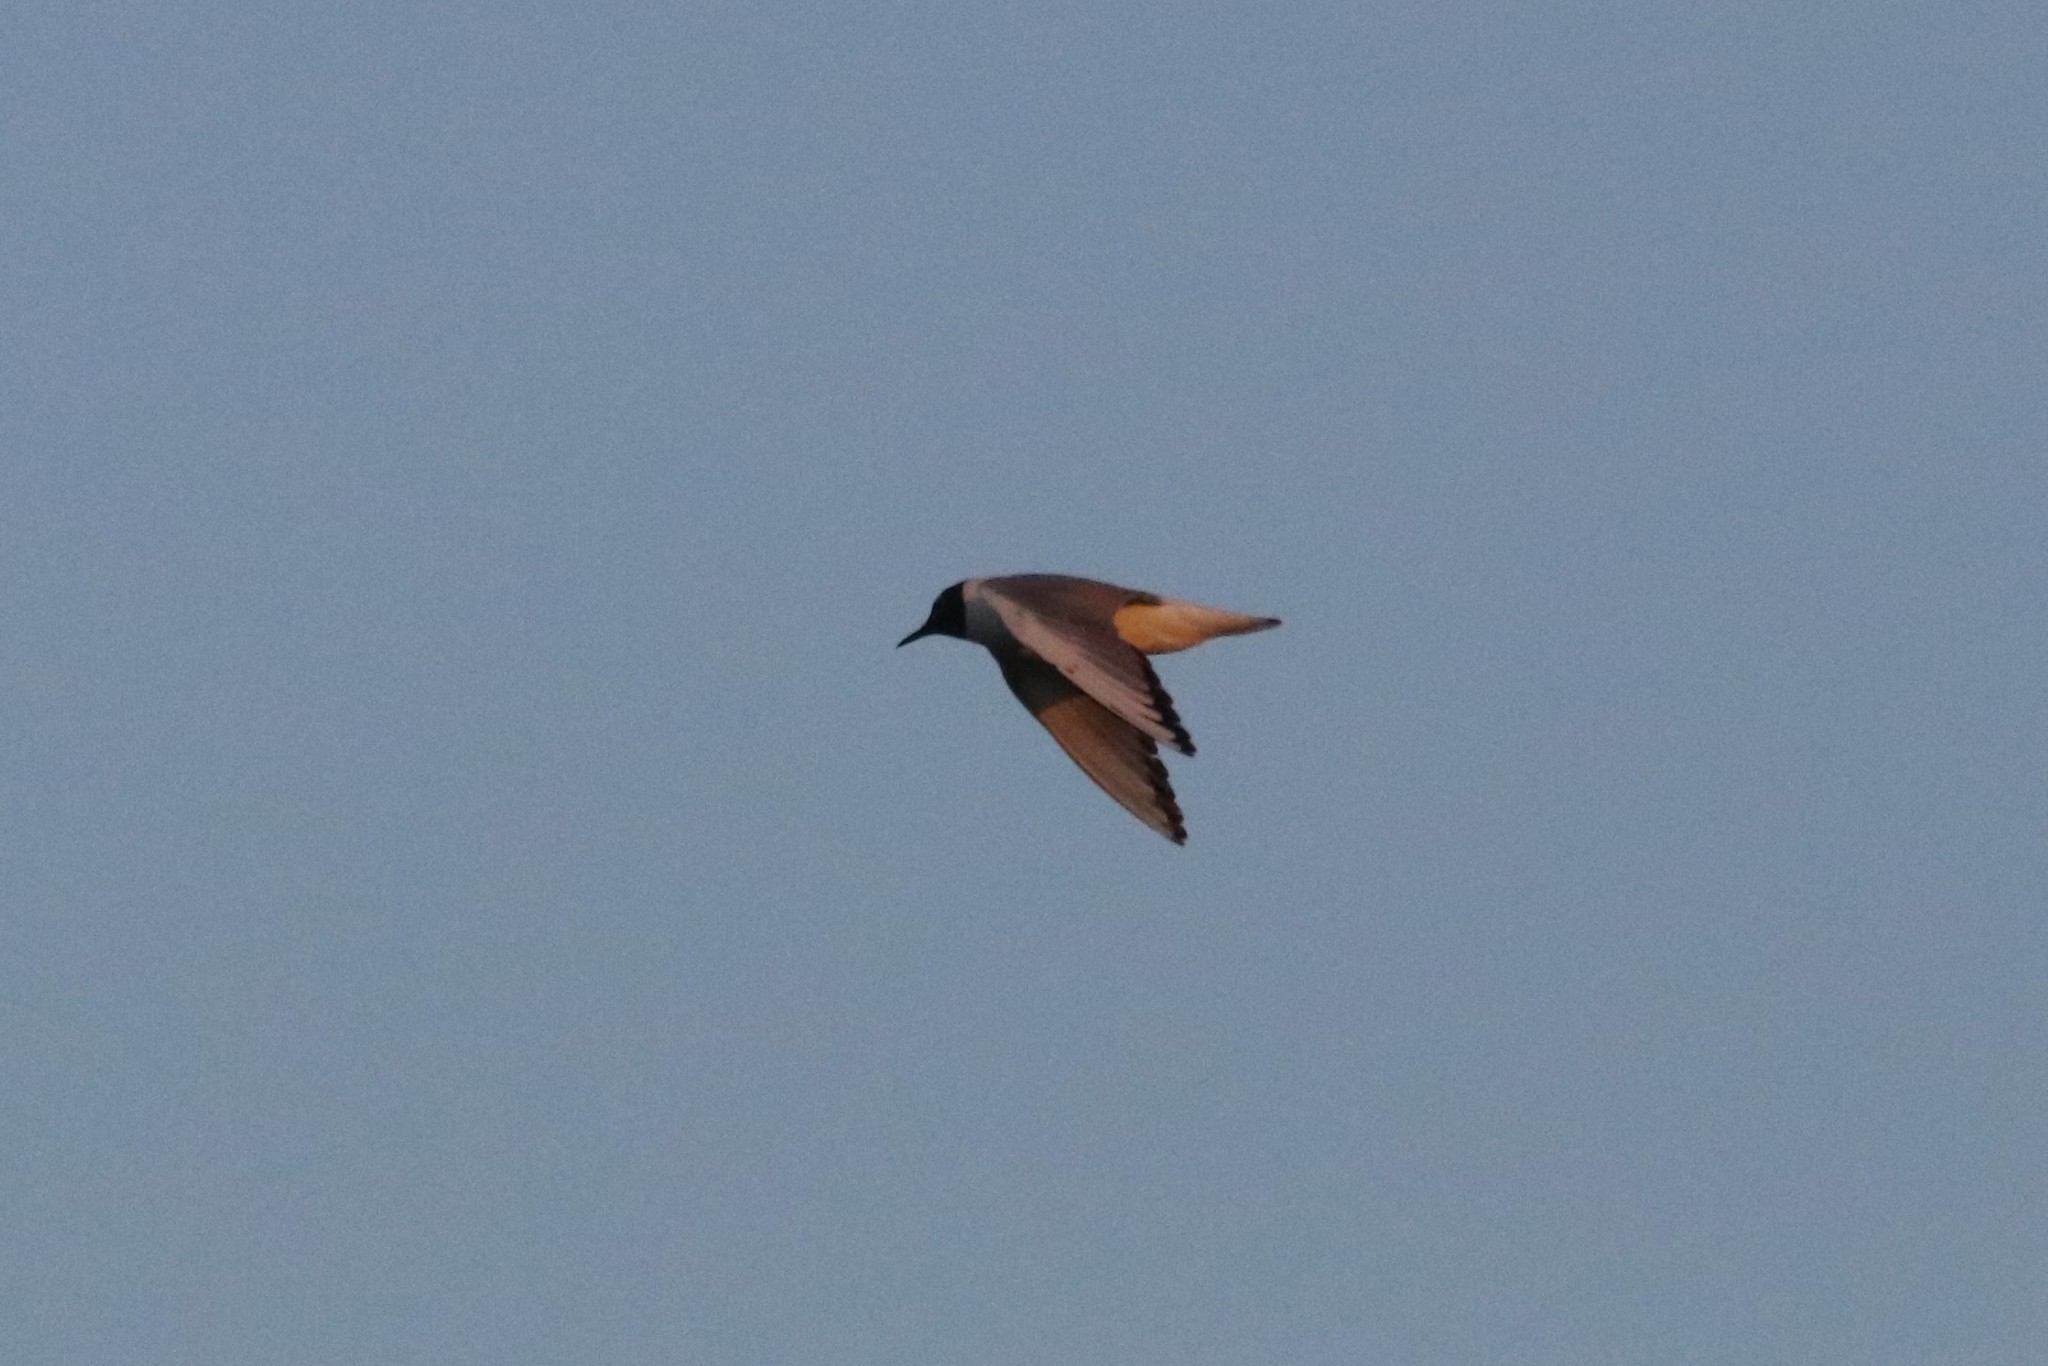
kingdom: Animalia
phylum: Chordata
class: Aves
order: Charadriiformes
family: Laridae
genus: Chroicocephalus
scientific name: Chroicocephalus philadelphia
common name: Bonaparte's gull
